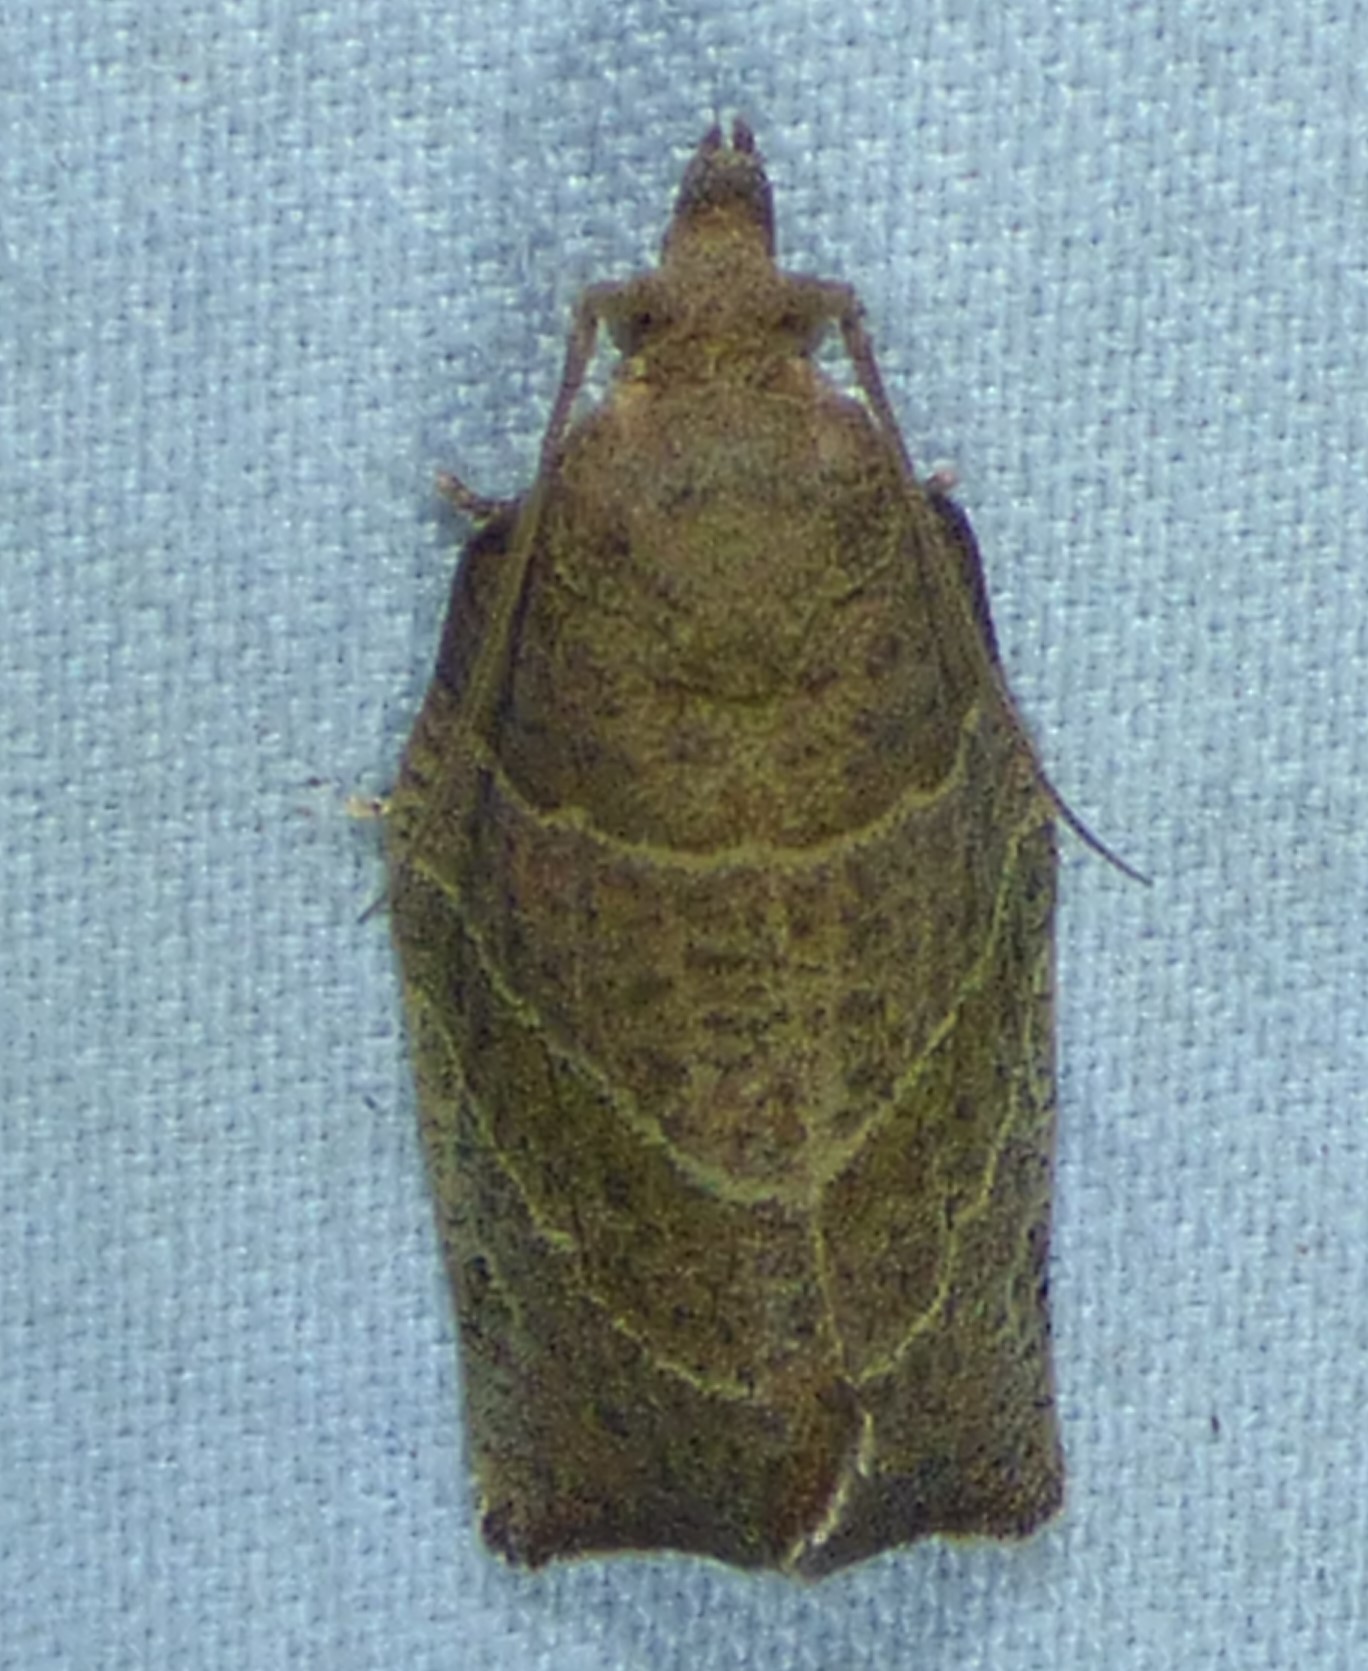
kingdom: Animalia
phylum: Arthropoda
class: Insecta
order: Lepidoptera
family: Tortricidae
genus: Pandemis
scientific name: Pandemis limitata
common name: Three-lined leafroller moth
